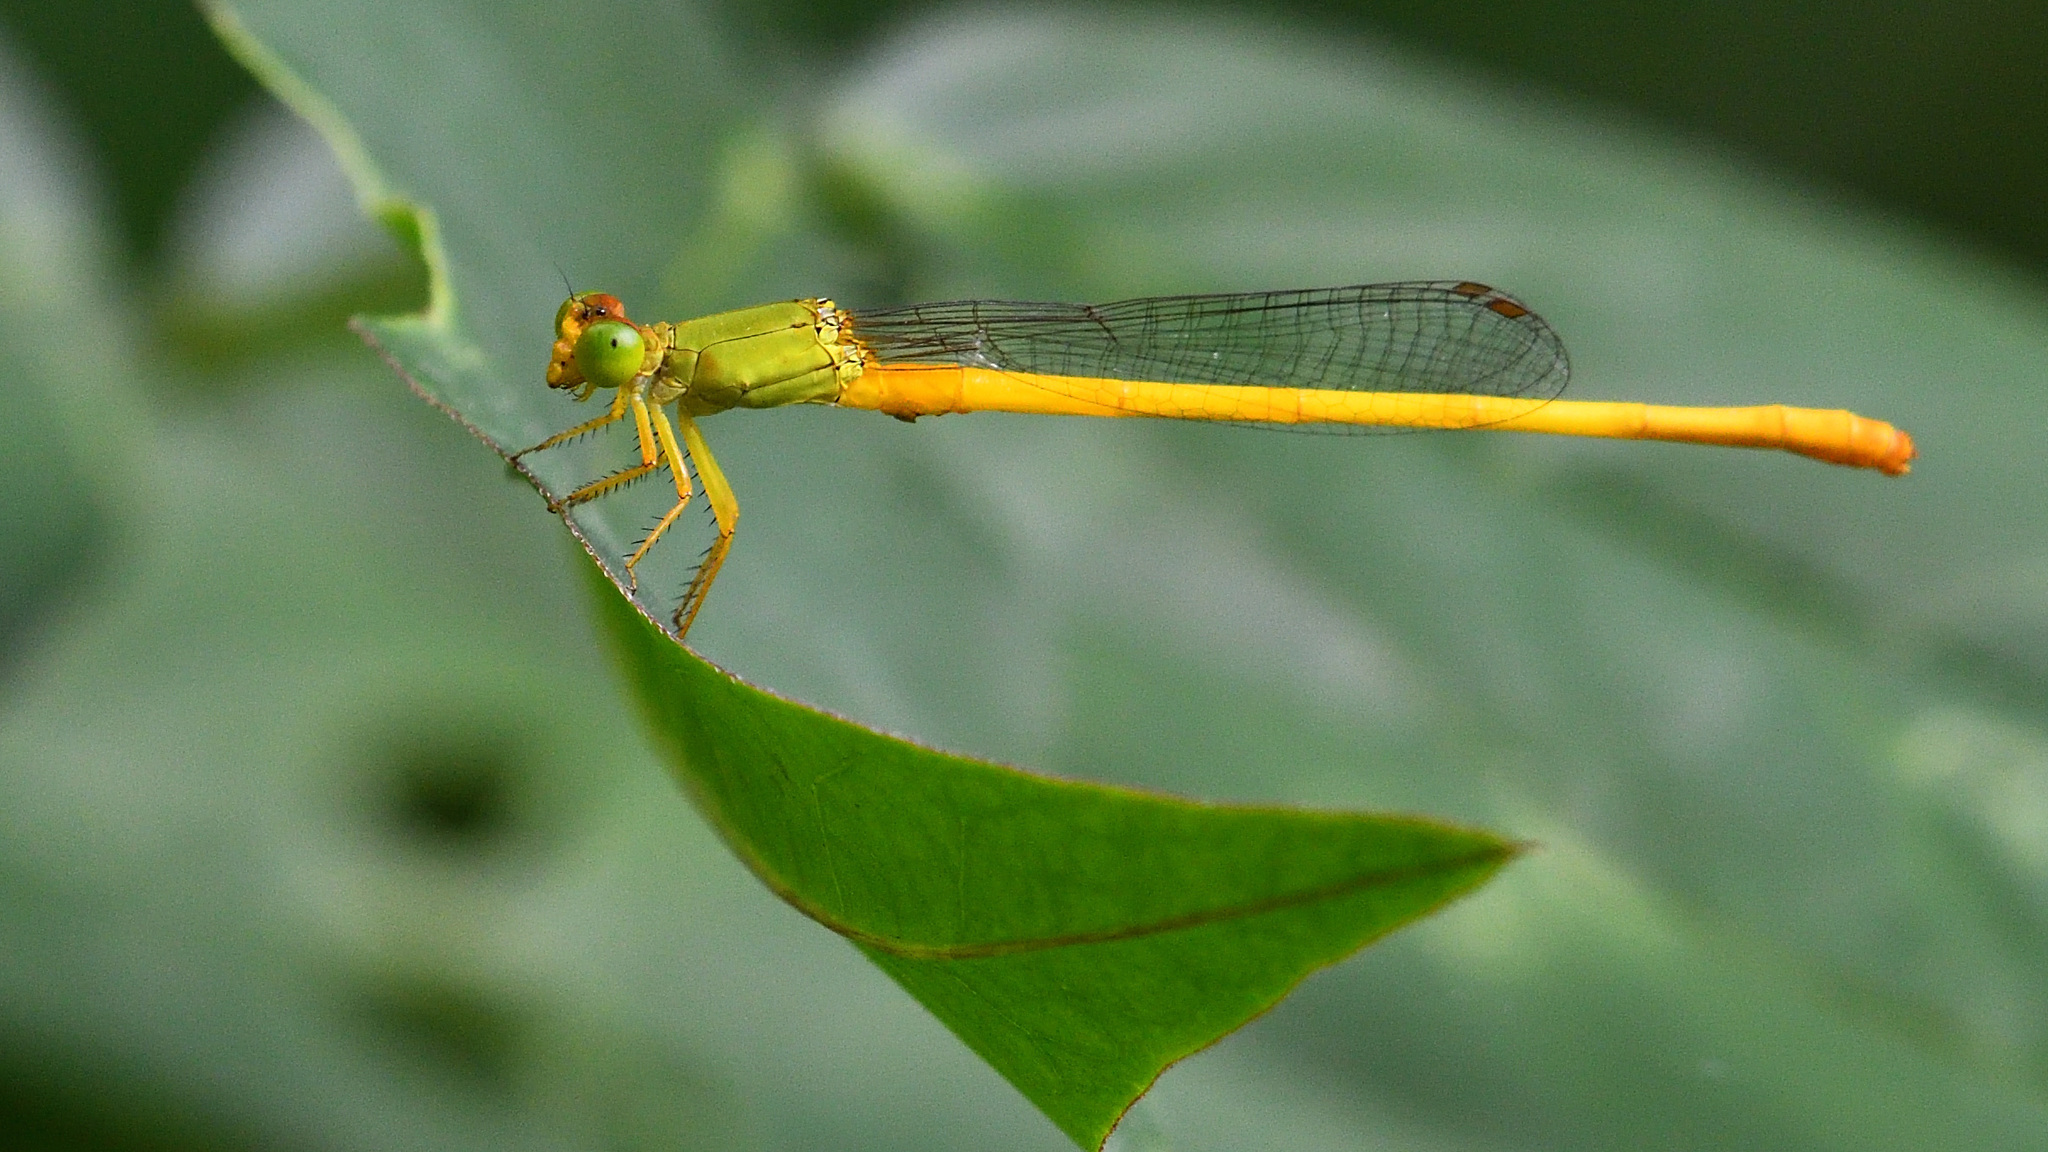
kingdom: Animalia
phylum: Arthropoda
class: Insecta
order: Odonata
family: Coenagrionidae
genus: Ceriagrion
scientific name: Ceriagrion coromandelianum
